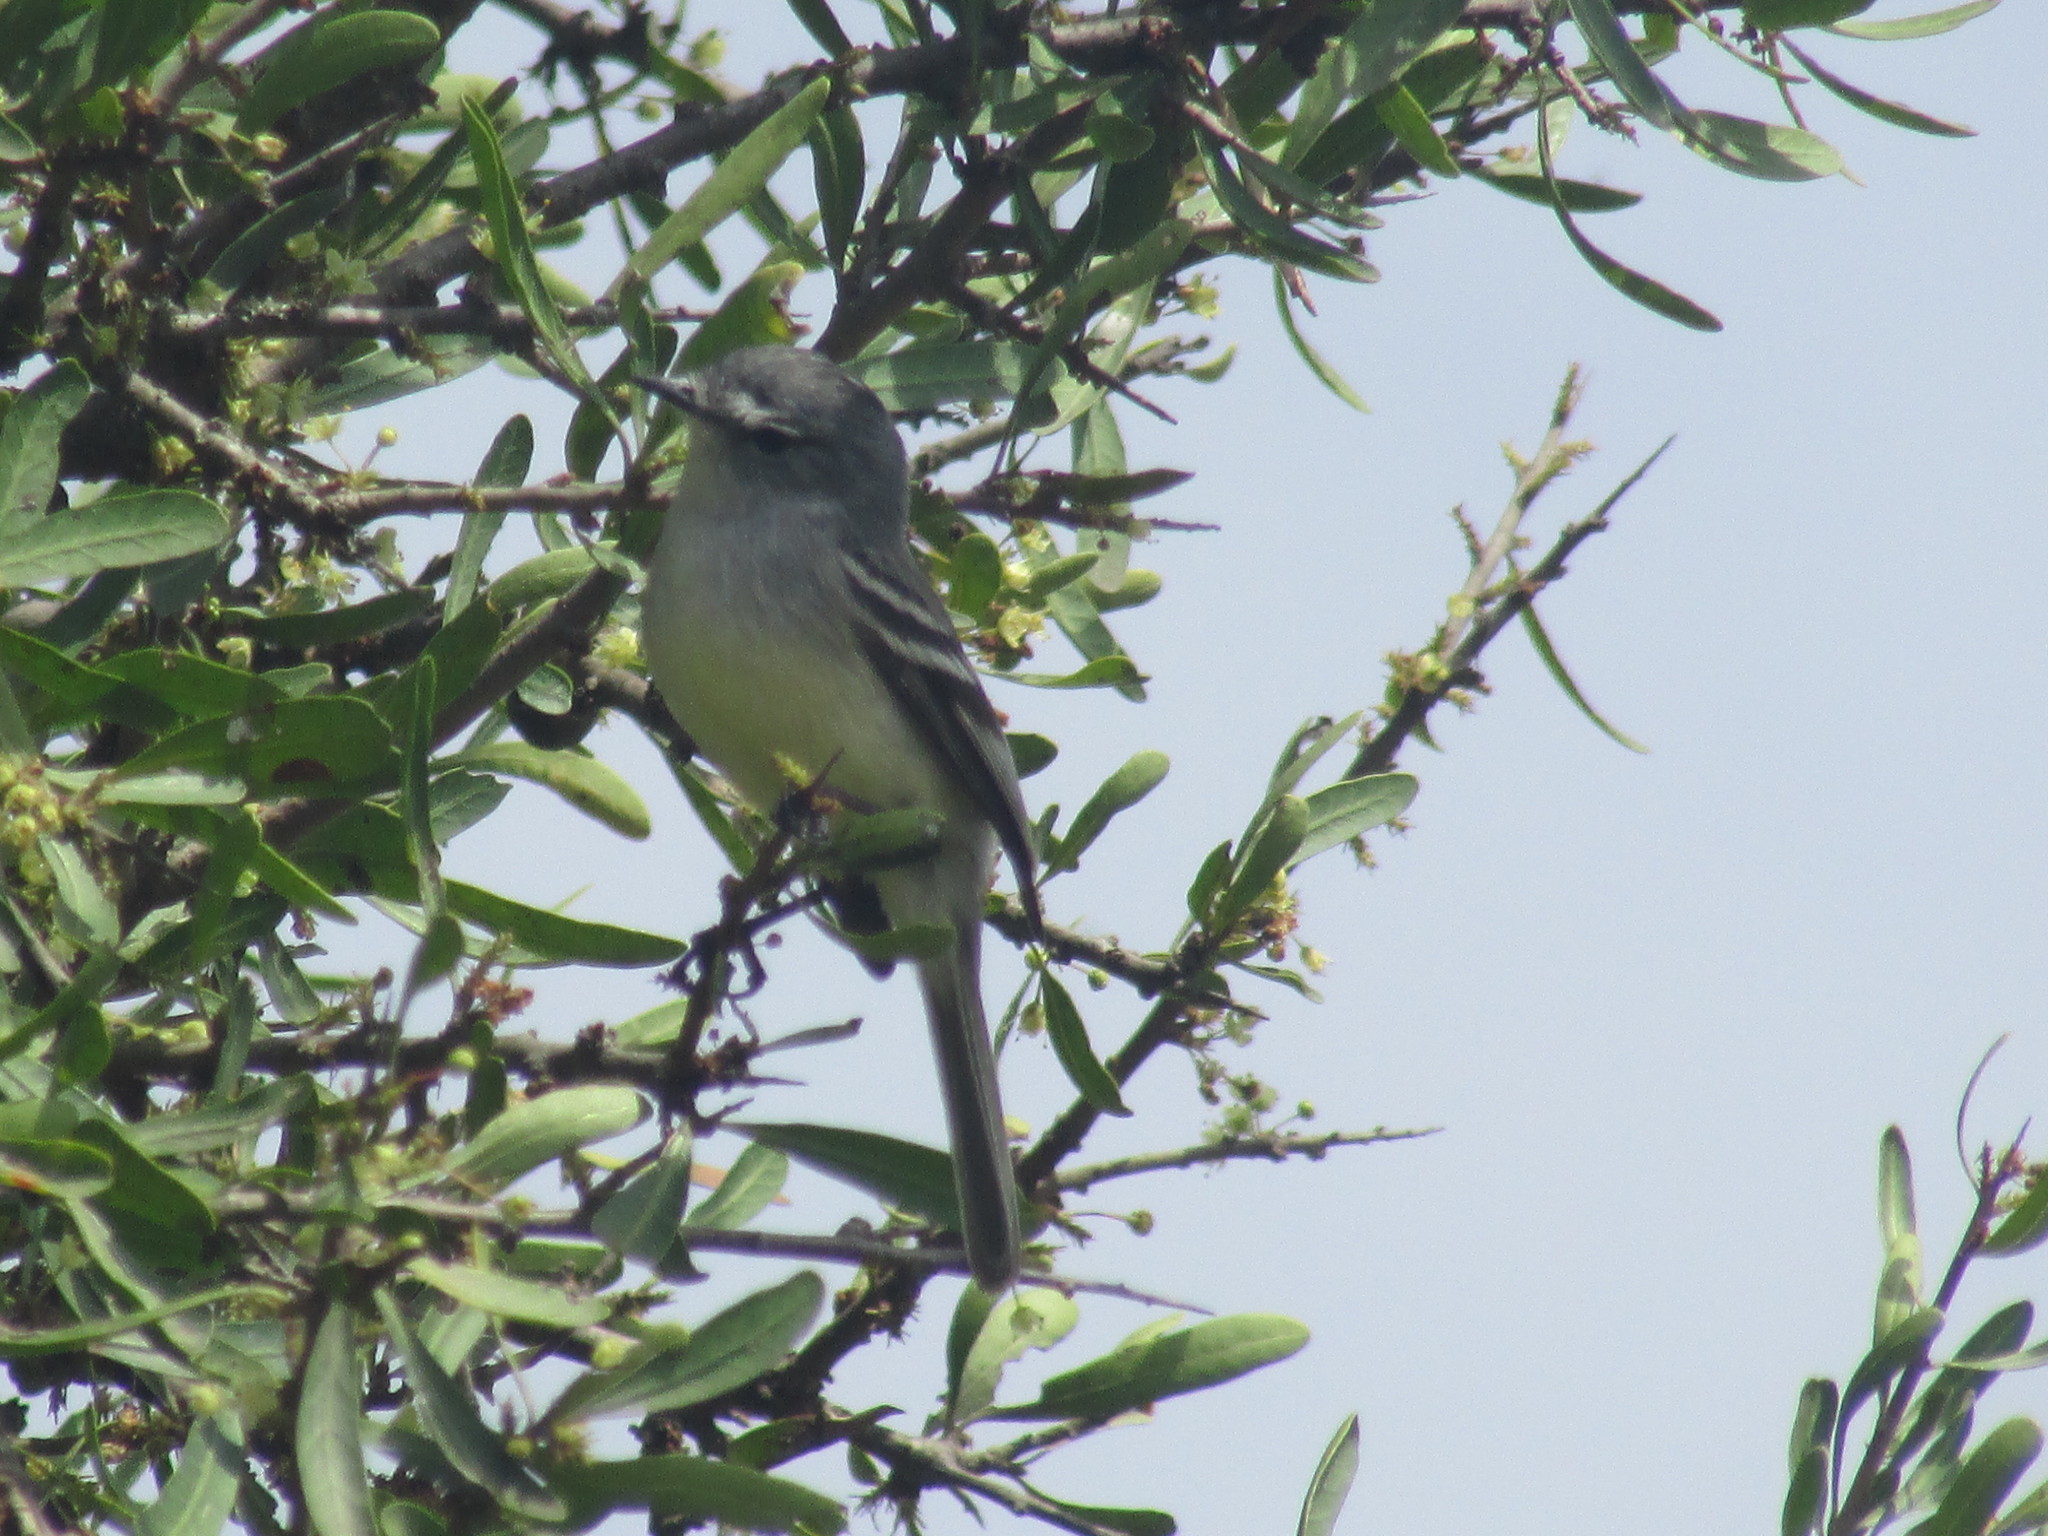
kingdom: Animalia
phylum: Chordata
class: Aves
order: Passeriformes
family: Tyrannidae
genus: Serpophaga
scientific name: Serpophaga subcristata
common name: White-crested tyrannulet
